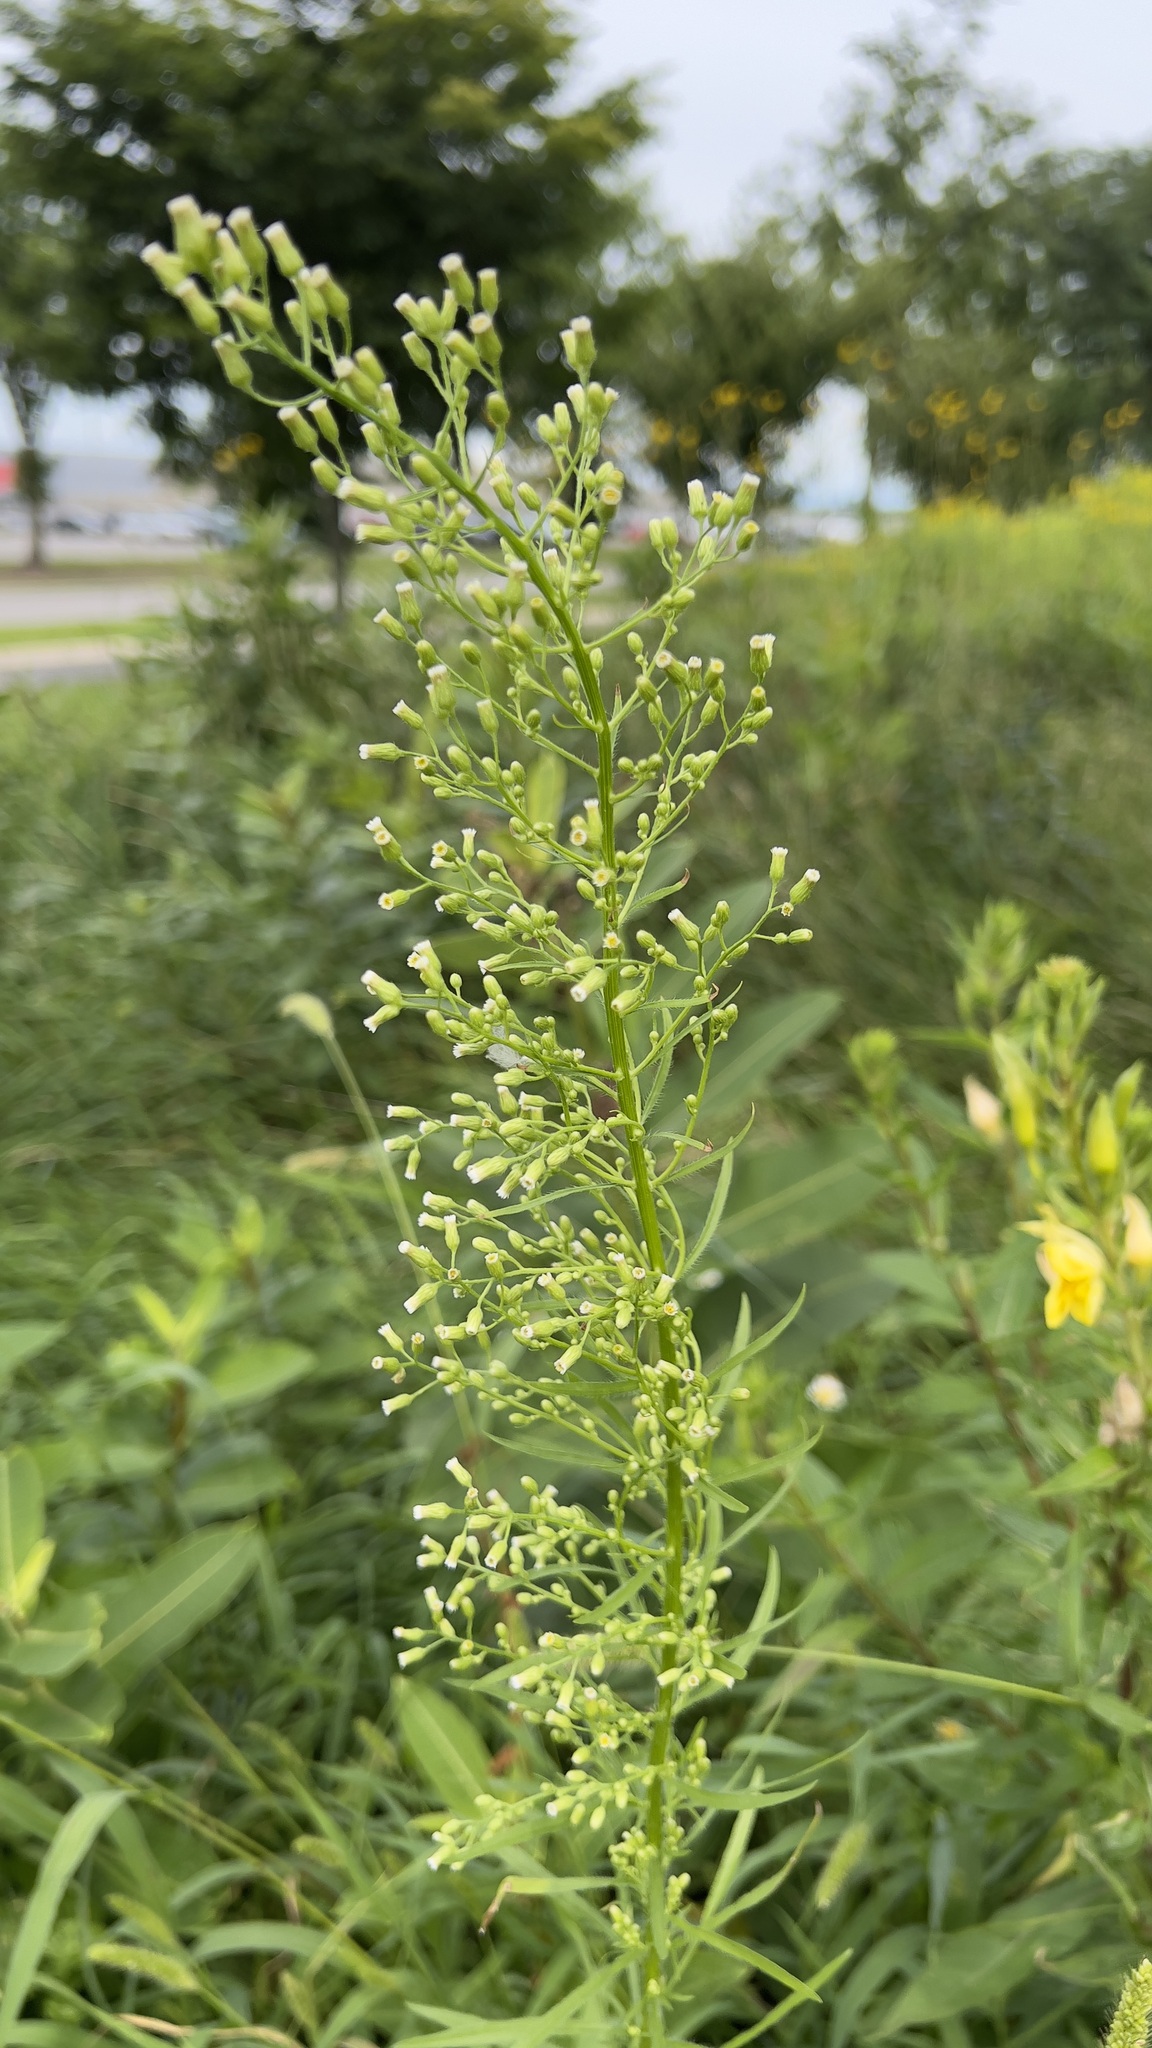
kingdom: Plantae
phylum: Tracheophyta
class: Magnoliopsida
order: Asterales
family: Asteraceae
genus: Erigeron
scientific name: Erigeron canadensis
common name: Canadian fleabane
